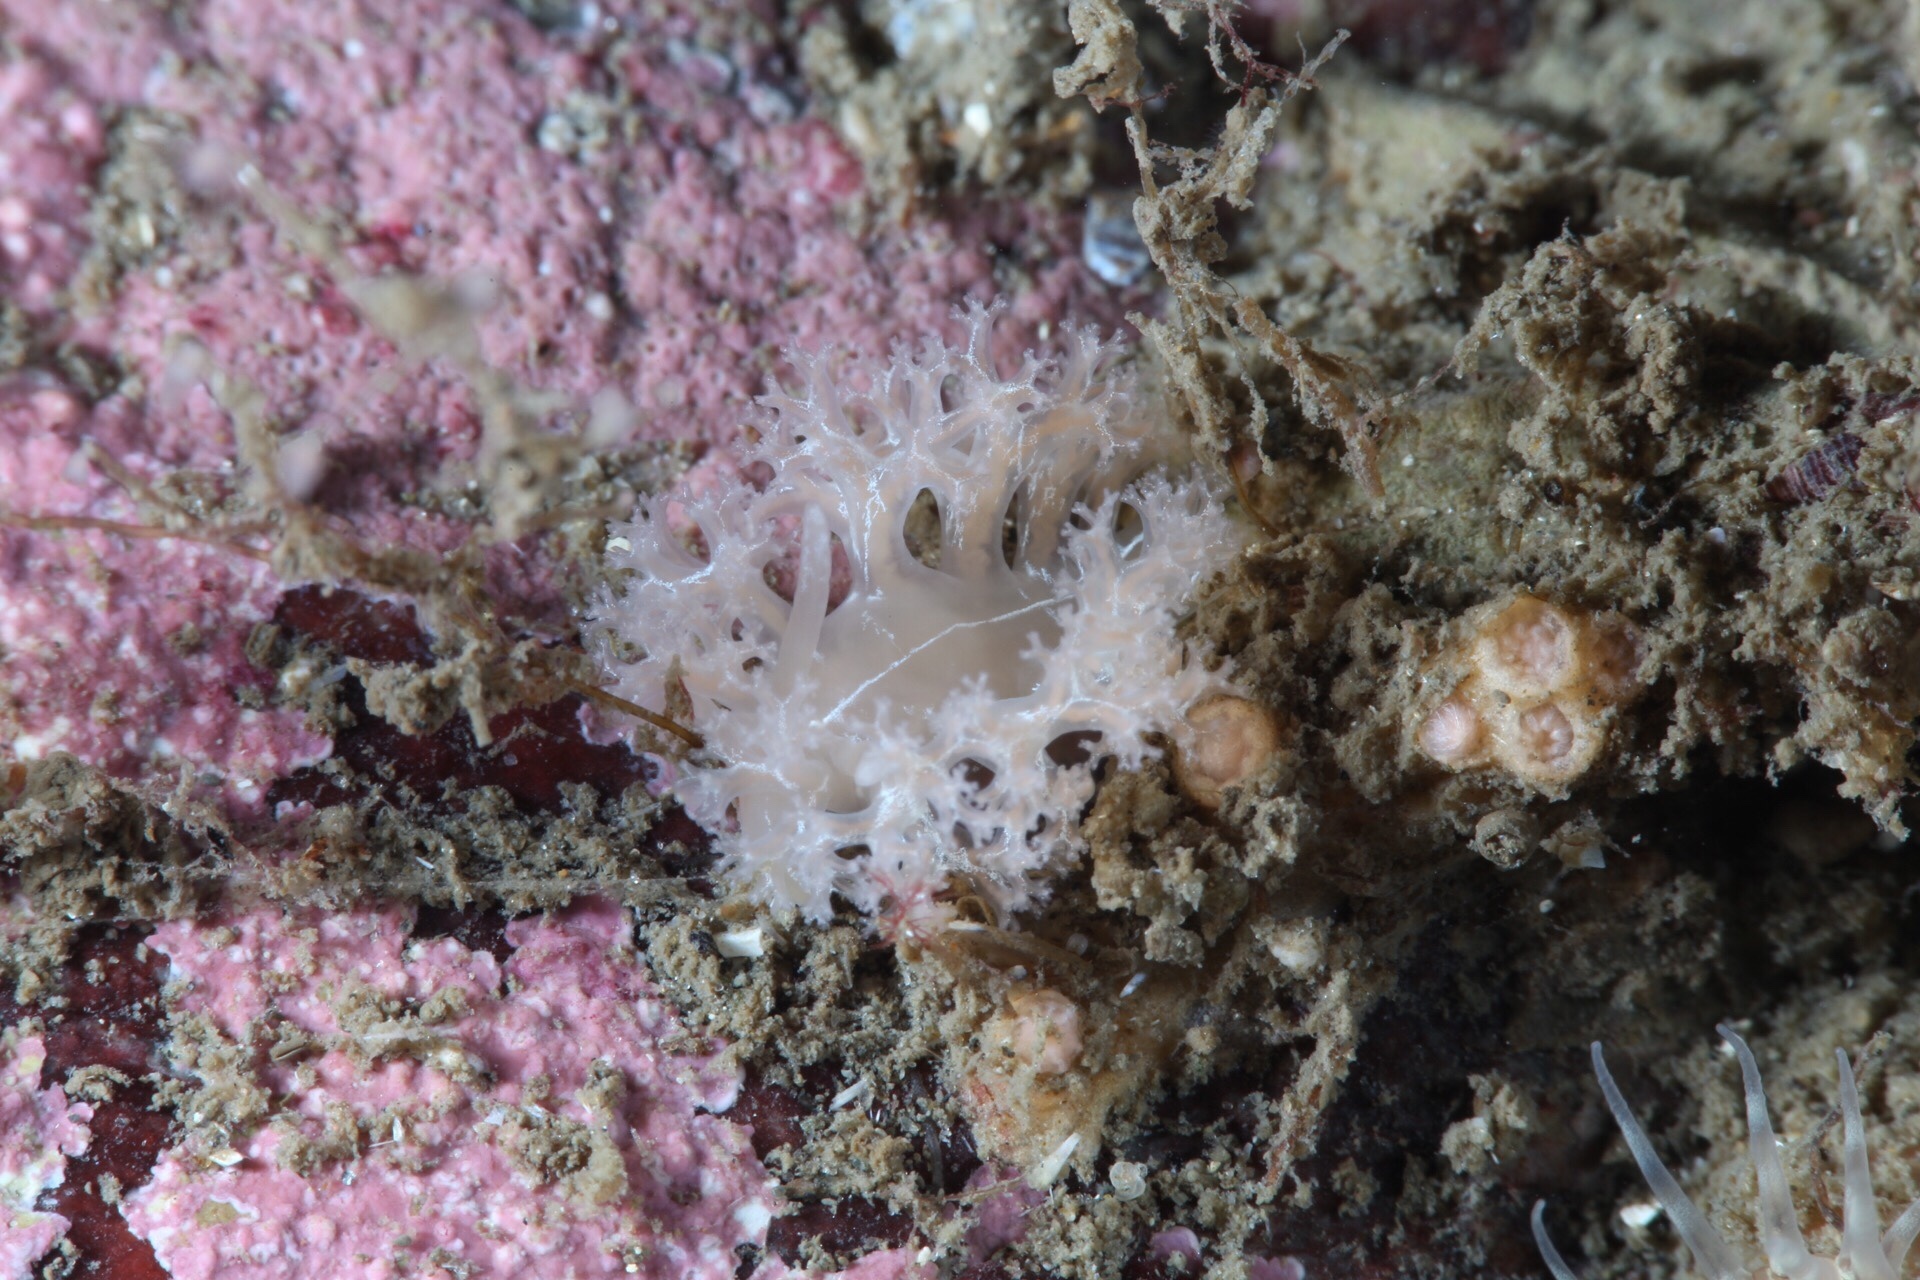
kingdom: Animalia
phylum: Mollusca
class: Gastropoda
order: Nudibranchia
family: Heroidae
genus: Hero
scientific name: Hero formosa
